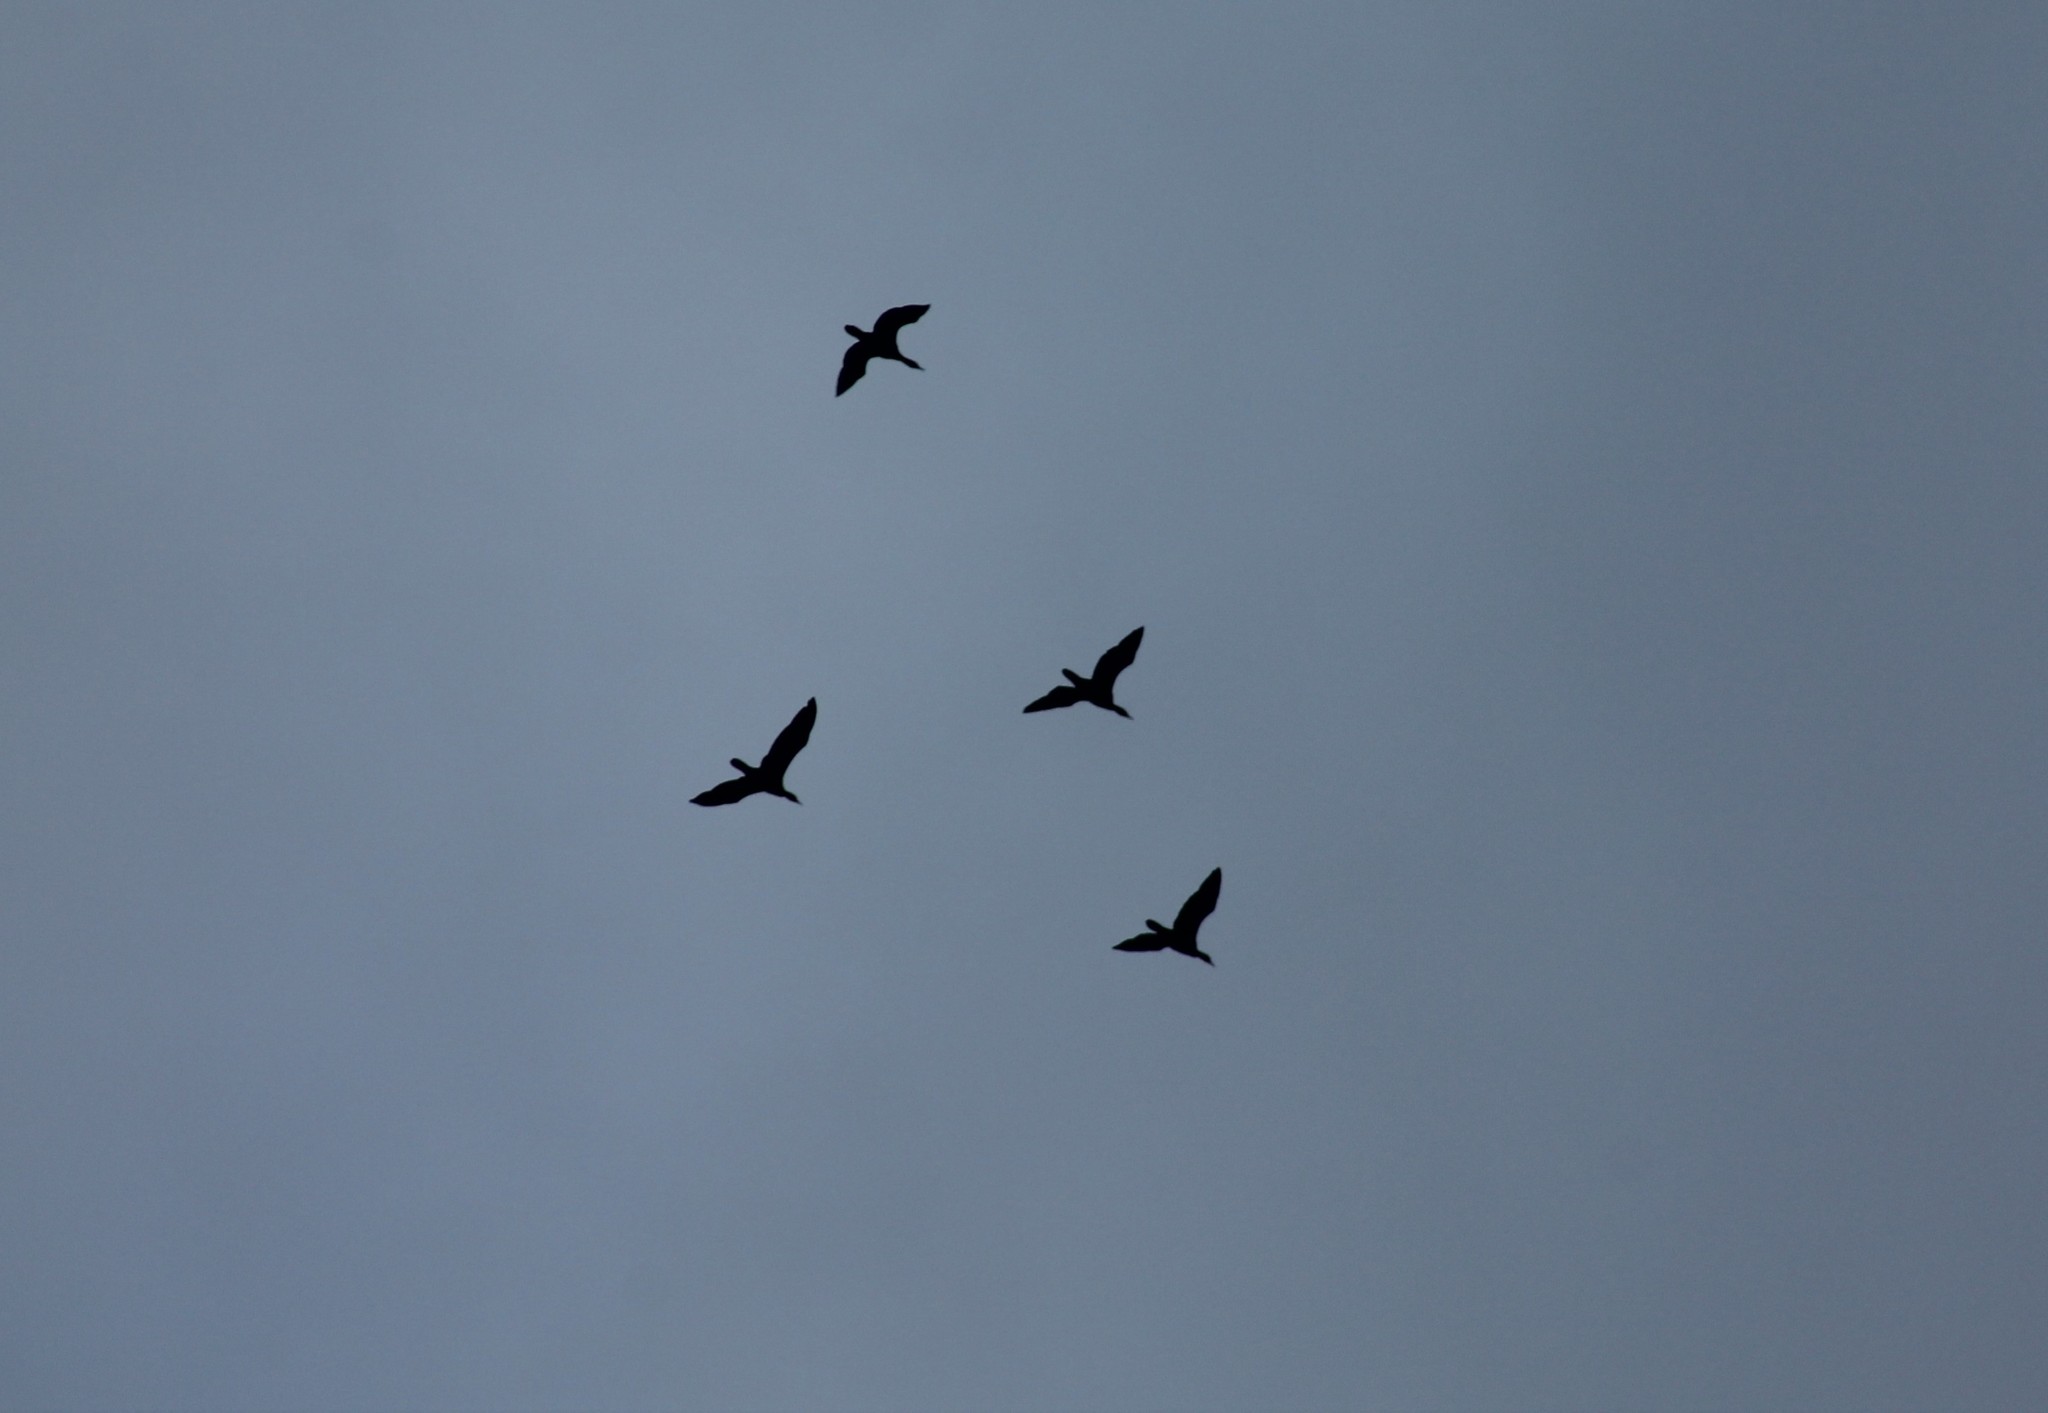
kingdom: Animalia
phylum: Chordata
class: Aves
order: Suliformes
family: Phalacrocoracidae
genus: Phalacrocorax
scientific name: Phalacrocorax carbo
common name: Great cormorant
